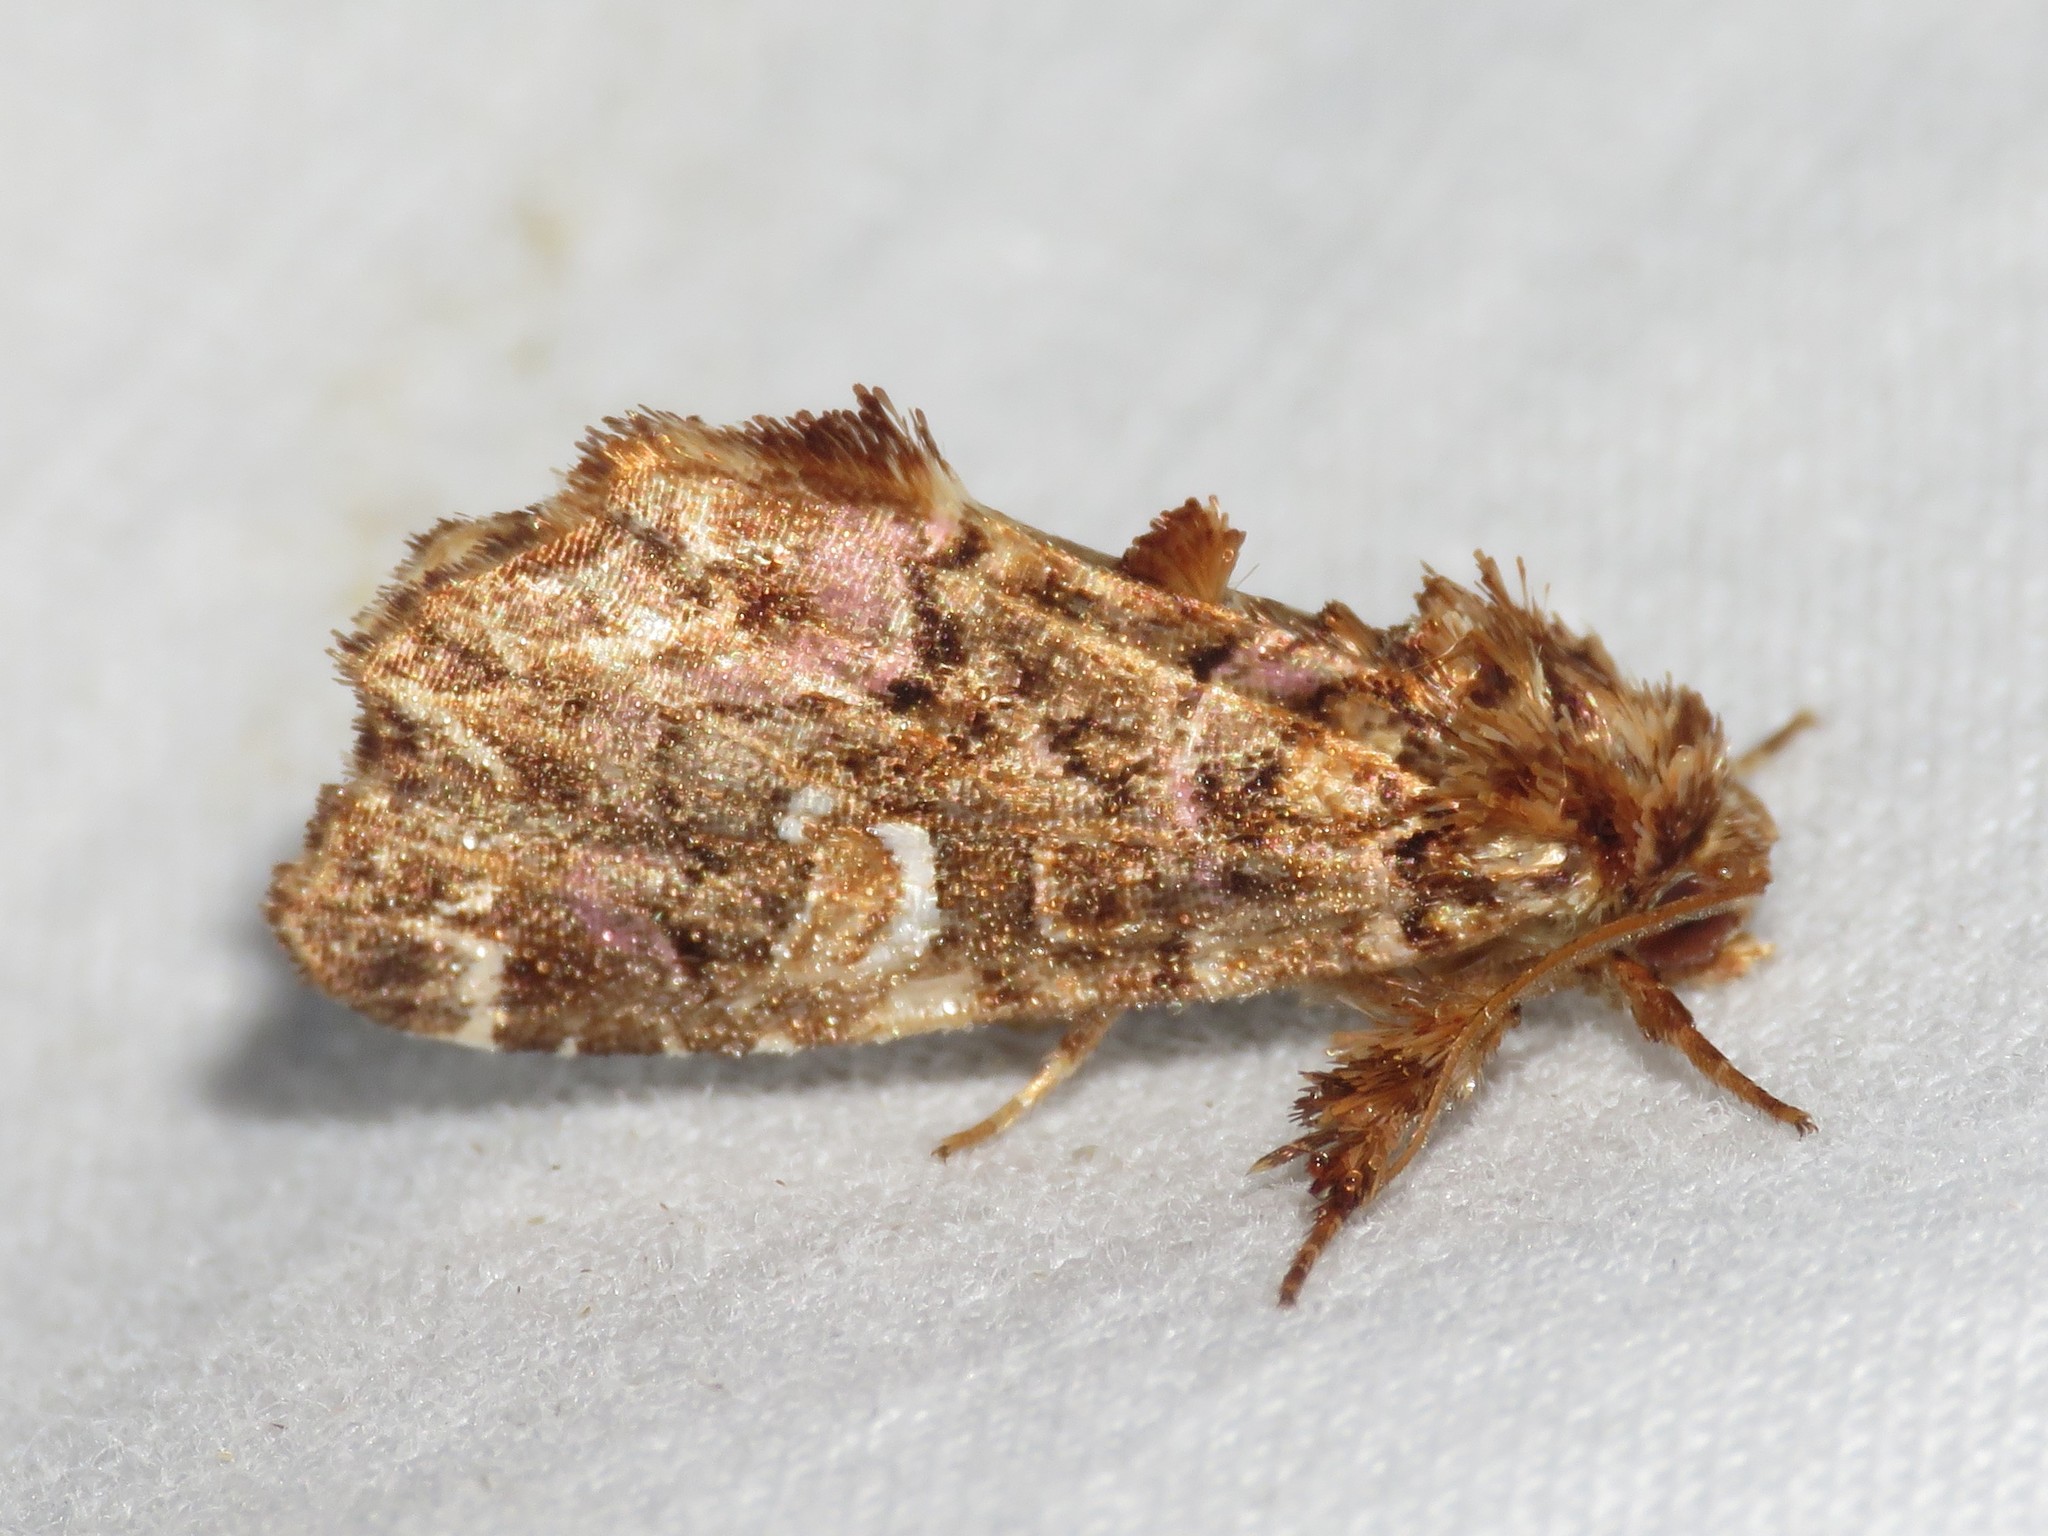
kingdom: Animalia
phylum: Arthropoda
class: Insecta
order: Lepidoptera
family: Noctuidae
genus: Callopistria
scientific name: Callopistria mollissima
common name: Pink-shaded fern moth
